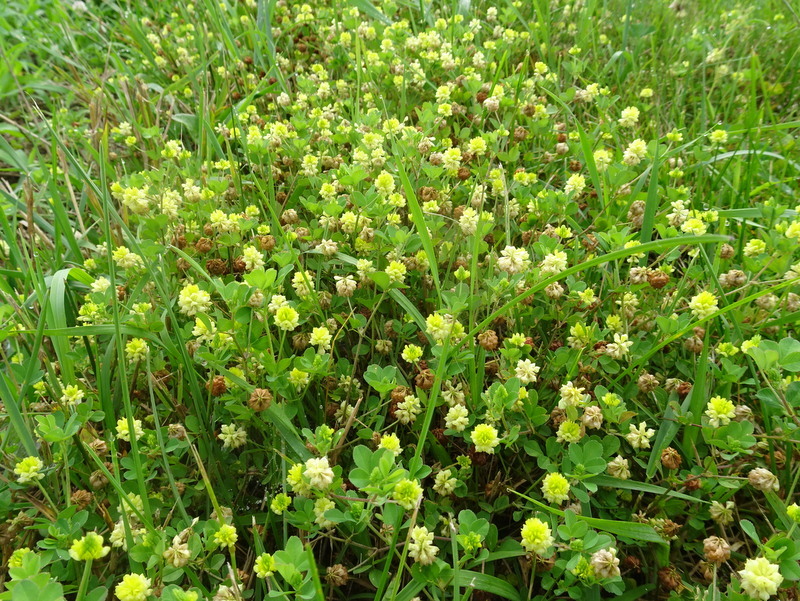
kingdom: Plantae
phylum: Tracheophyta
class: Magnoliopsida
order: Fabales
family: Fabaceae
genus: Trifolium
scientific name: Trifolium campestre
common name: Field clover
